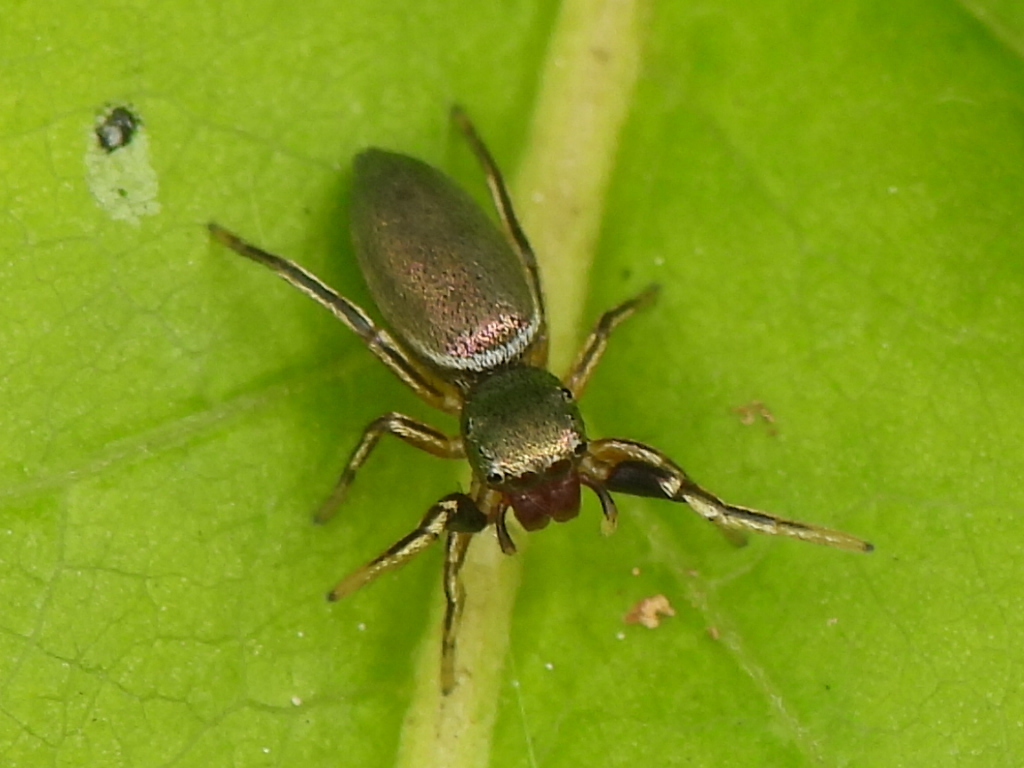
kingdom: Animalia
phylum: Arthropoda
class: Arachnida
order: Araneae
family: Salticidae
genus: Tutelina
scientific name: Tutelina elegans
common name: Thin-spined jumping spider
